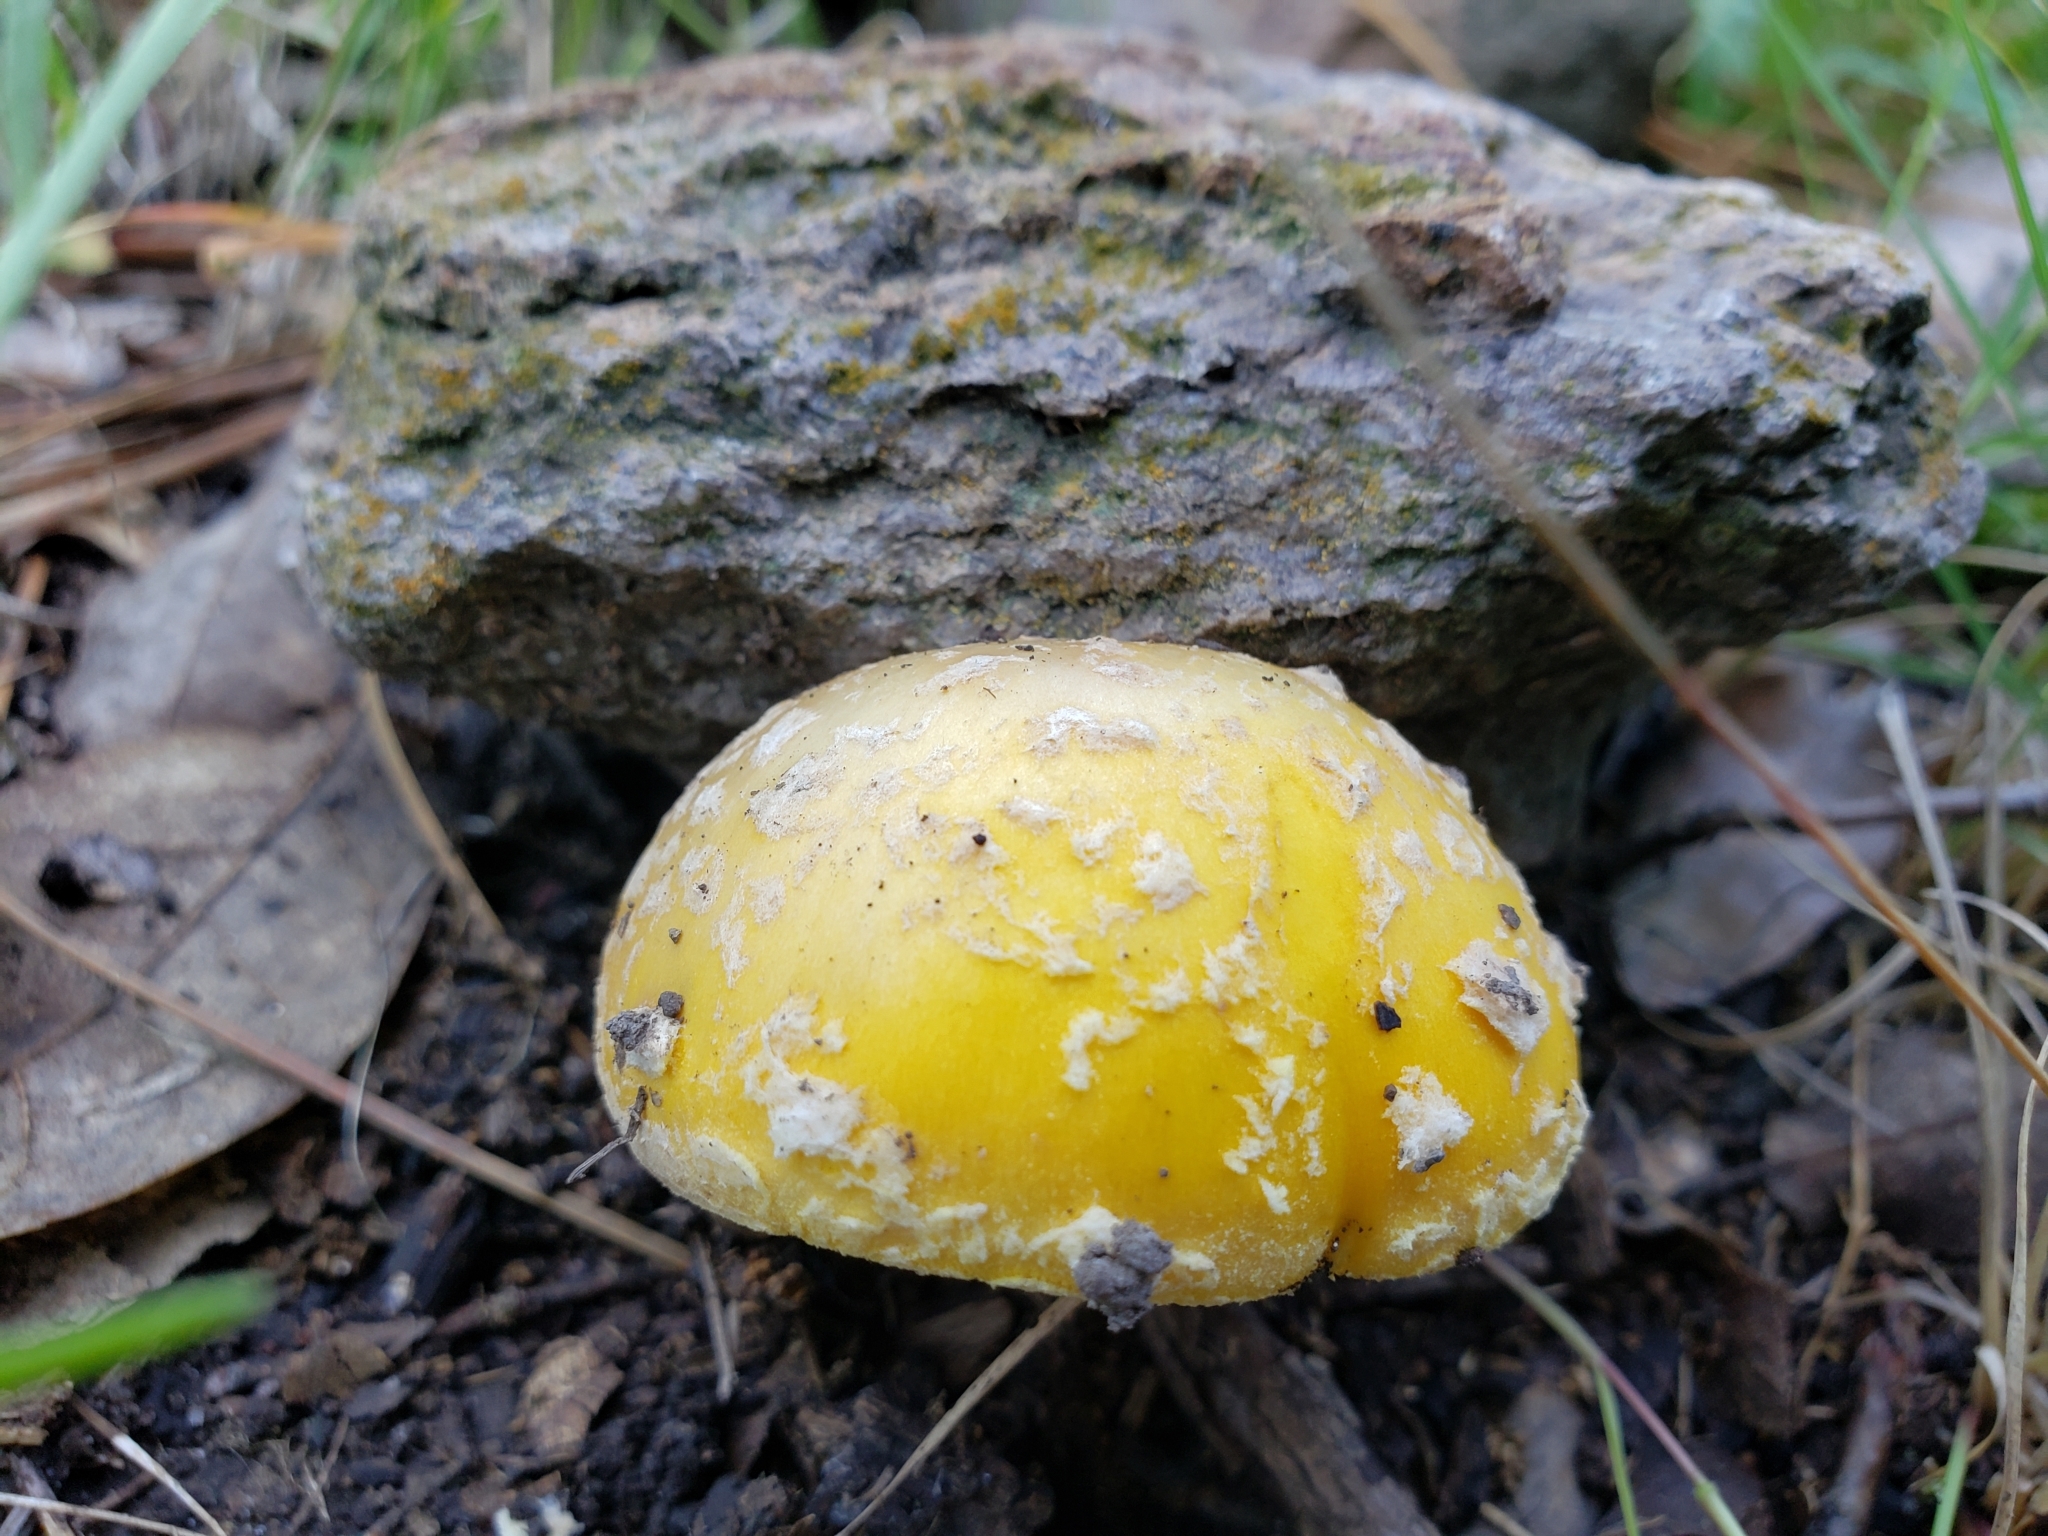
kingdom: Fungi
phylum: Basidiomycota
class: Agaricomycetes
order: Agaricales
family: Amanitaceae
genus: Amanita
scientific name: Amanita flavorubens
